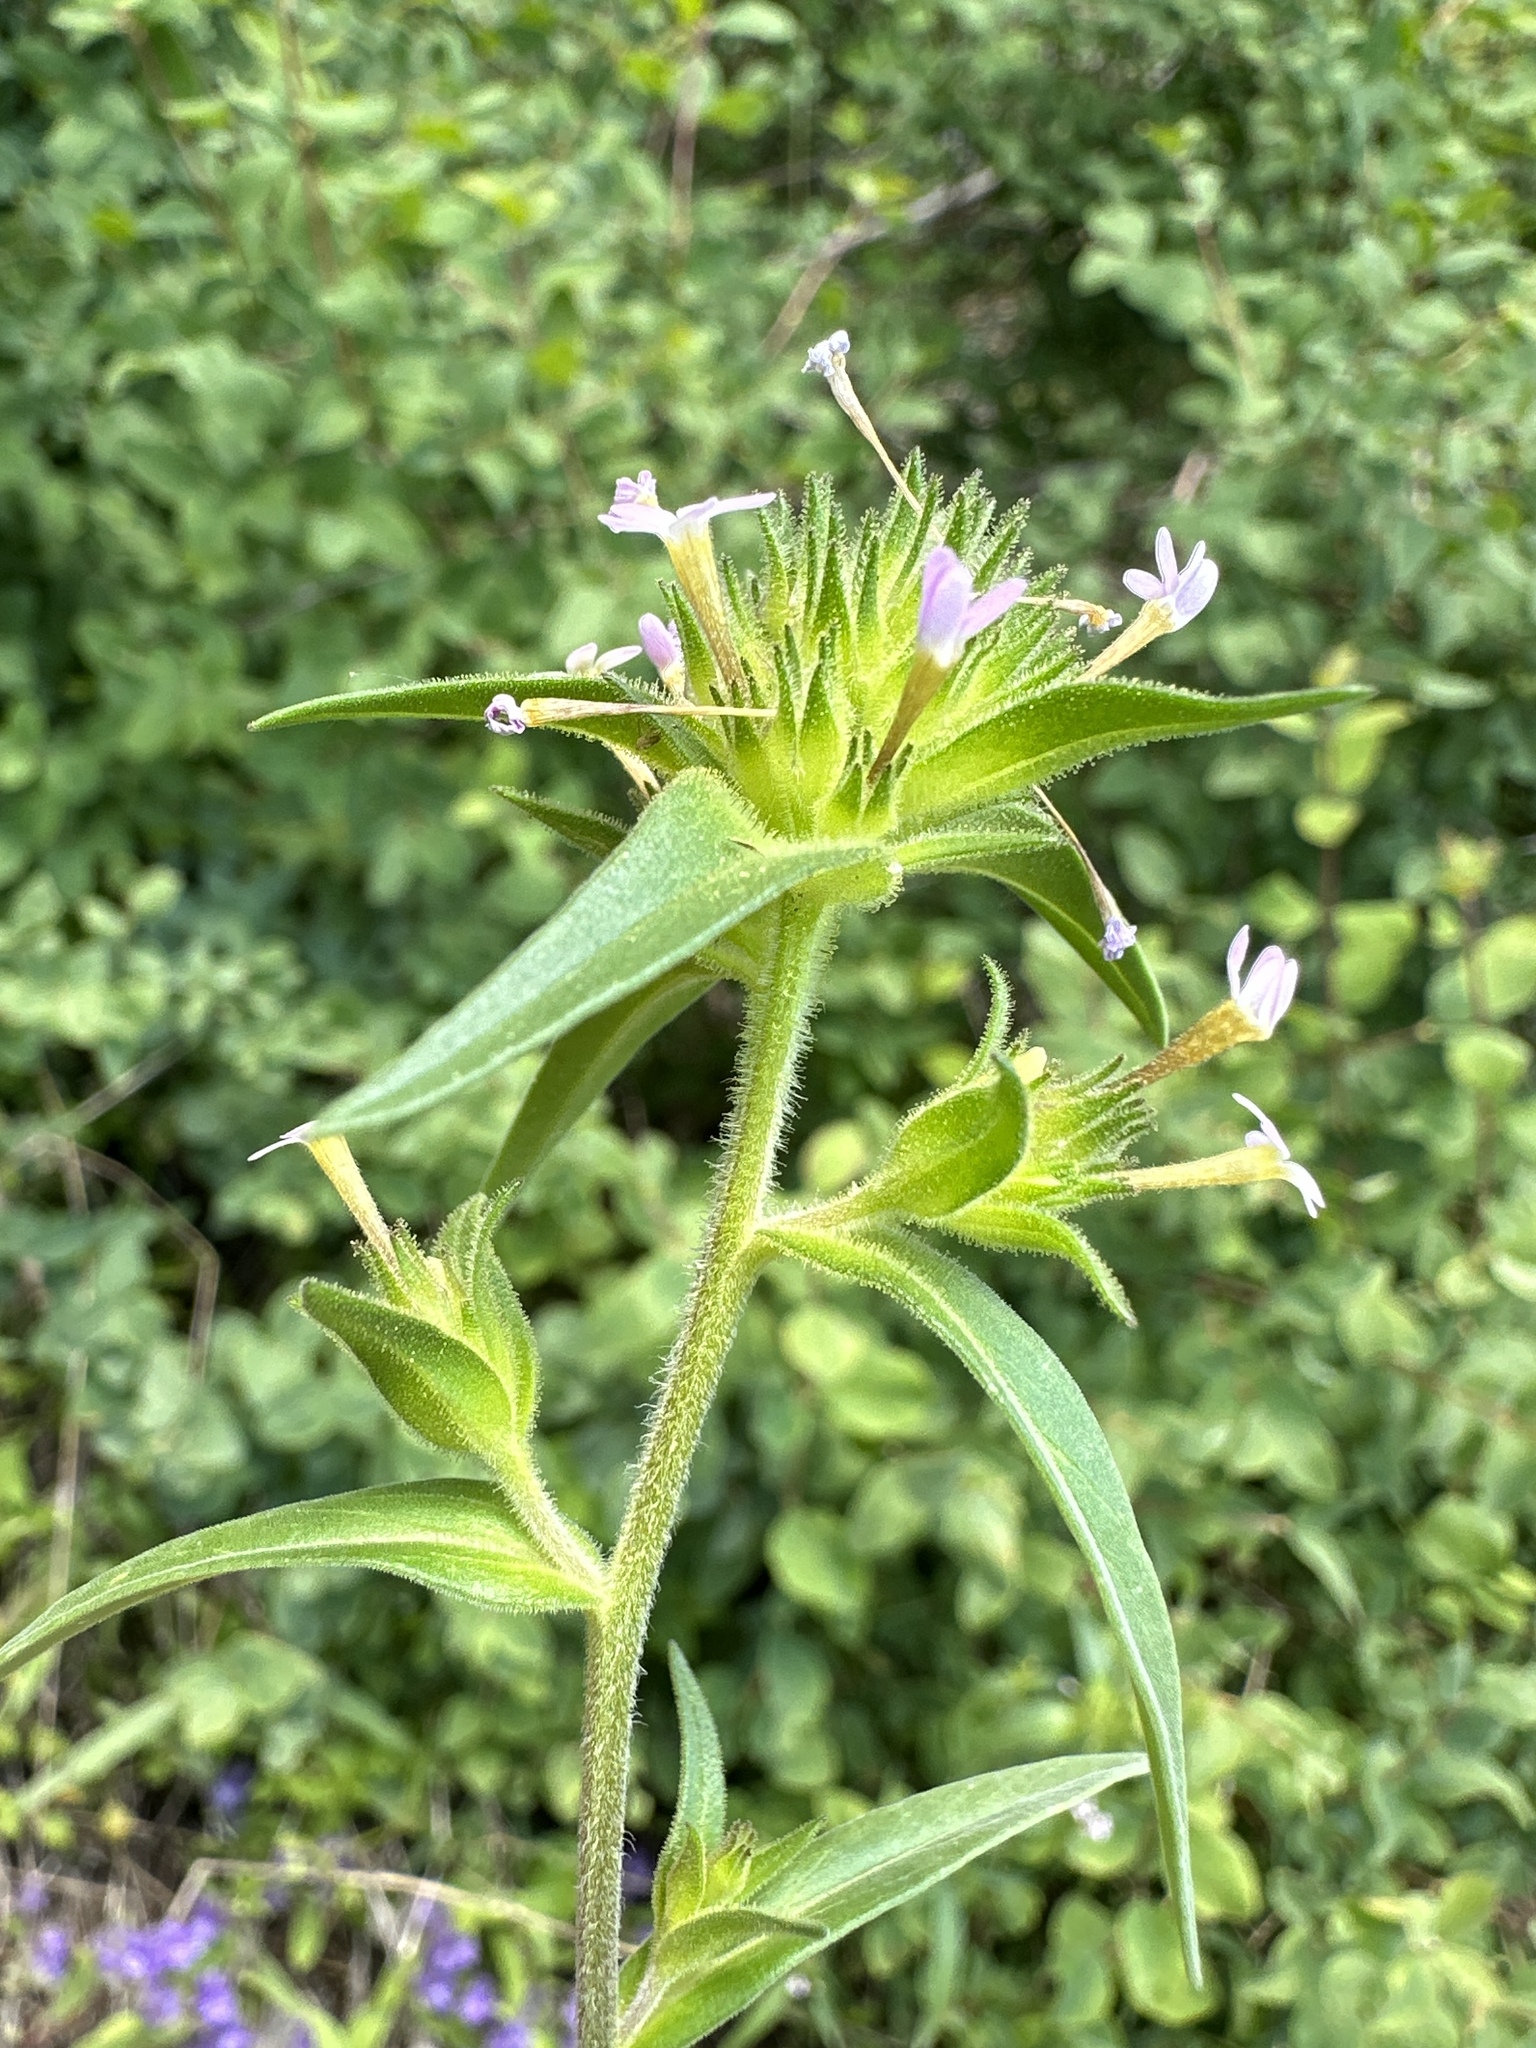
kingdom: Plantae
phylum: Tracheophyta
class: Magnoliopsida
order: Ericales
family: Polemoniaceae
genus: Collomia
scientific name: Collomia linearis
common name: Tiny trumpet
